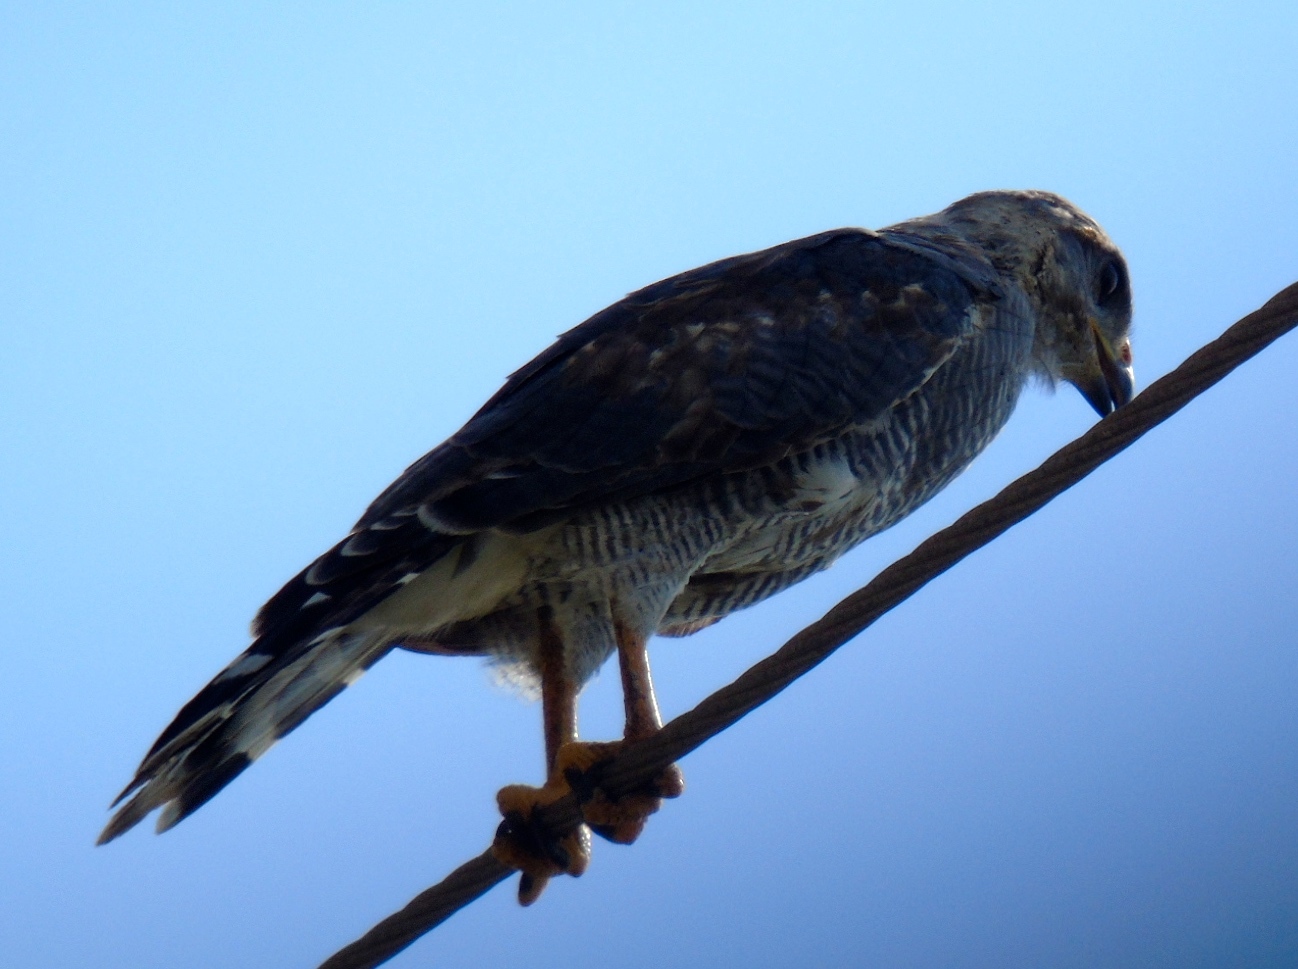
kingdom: Animalia
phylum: Chordata
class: Aves
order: Accipitriformes
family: Accipitridae
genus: Buteo
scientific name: Buteo nitidus
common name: Grey-lined hawk
